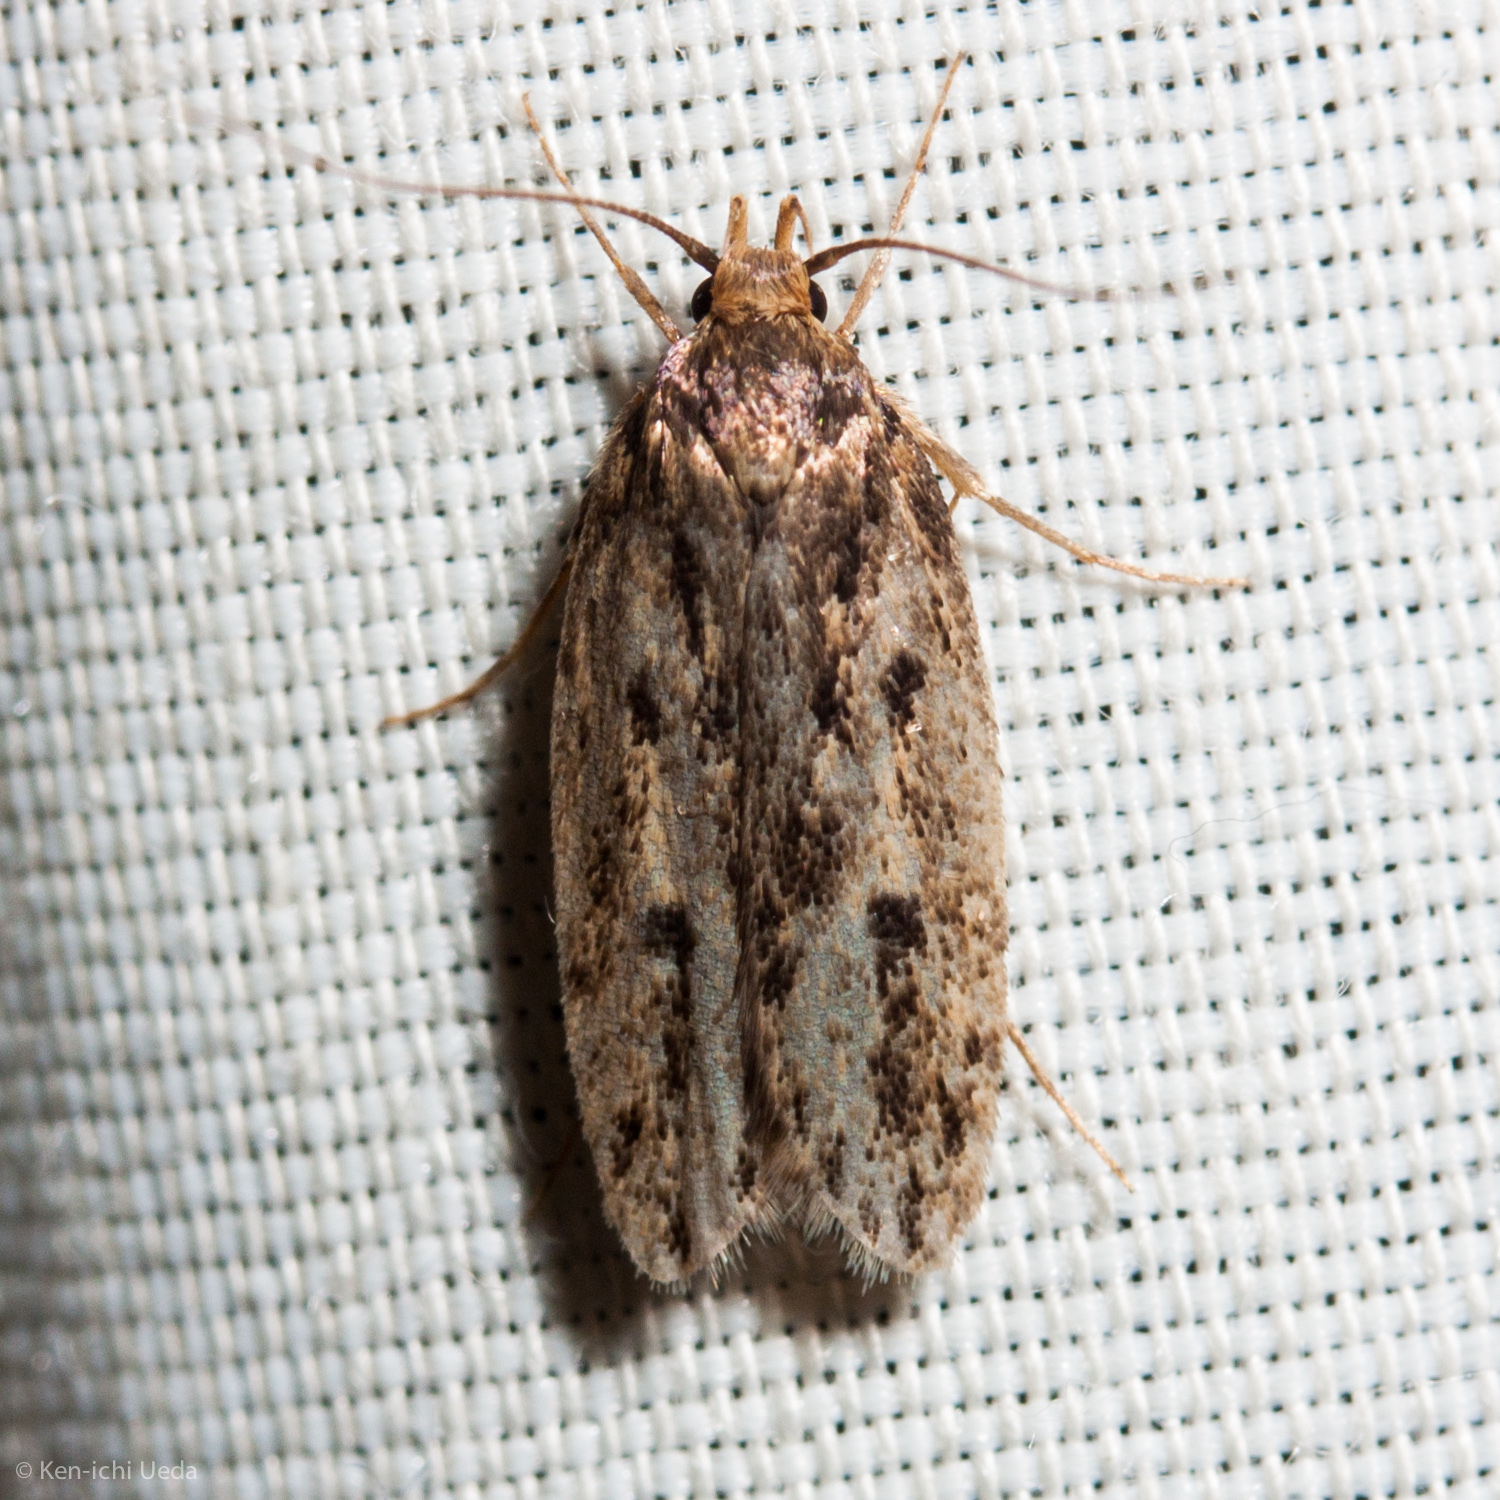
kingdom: Animalia
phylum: Arthropoda
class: Insecta
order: Lepidoptera
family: Oecophoridae
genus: Hofmannophila
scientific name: Hofmannophila pseudospretella
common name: Brown house moth
